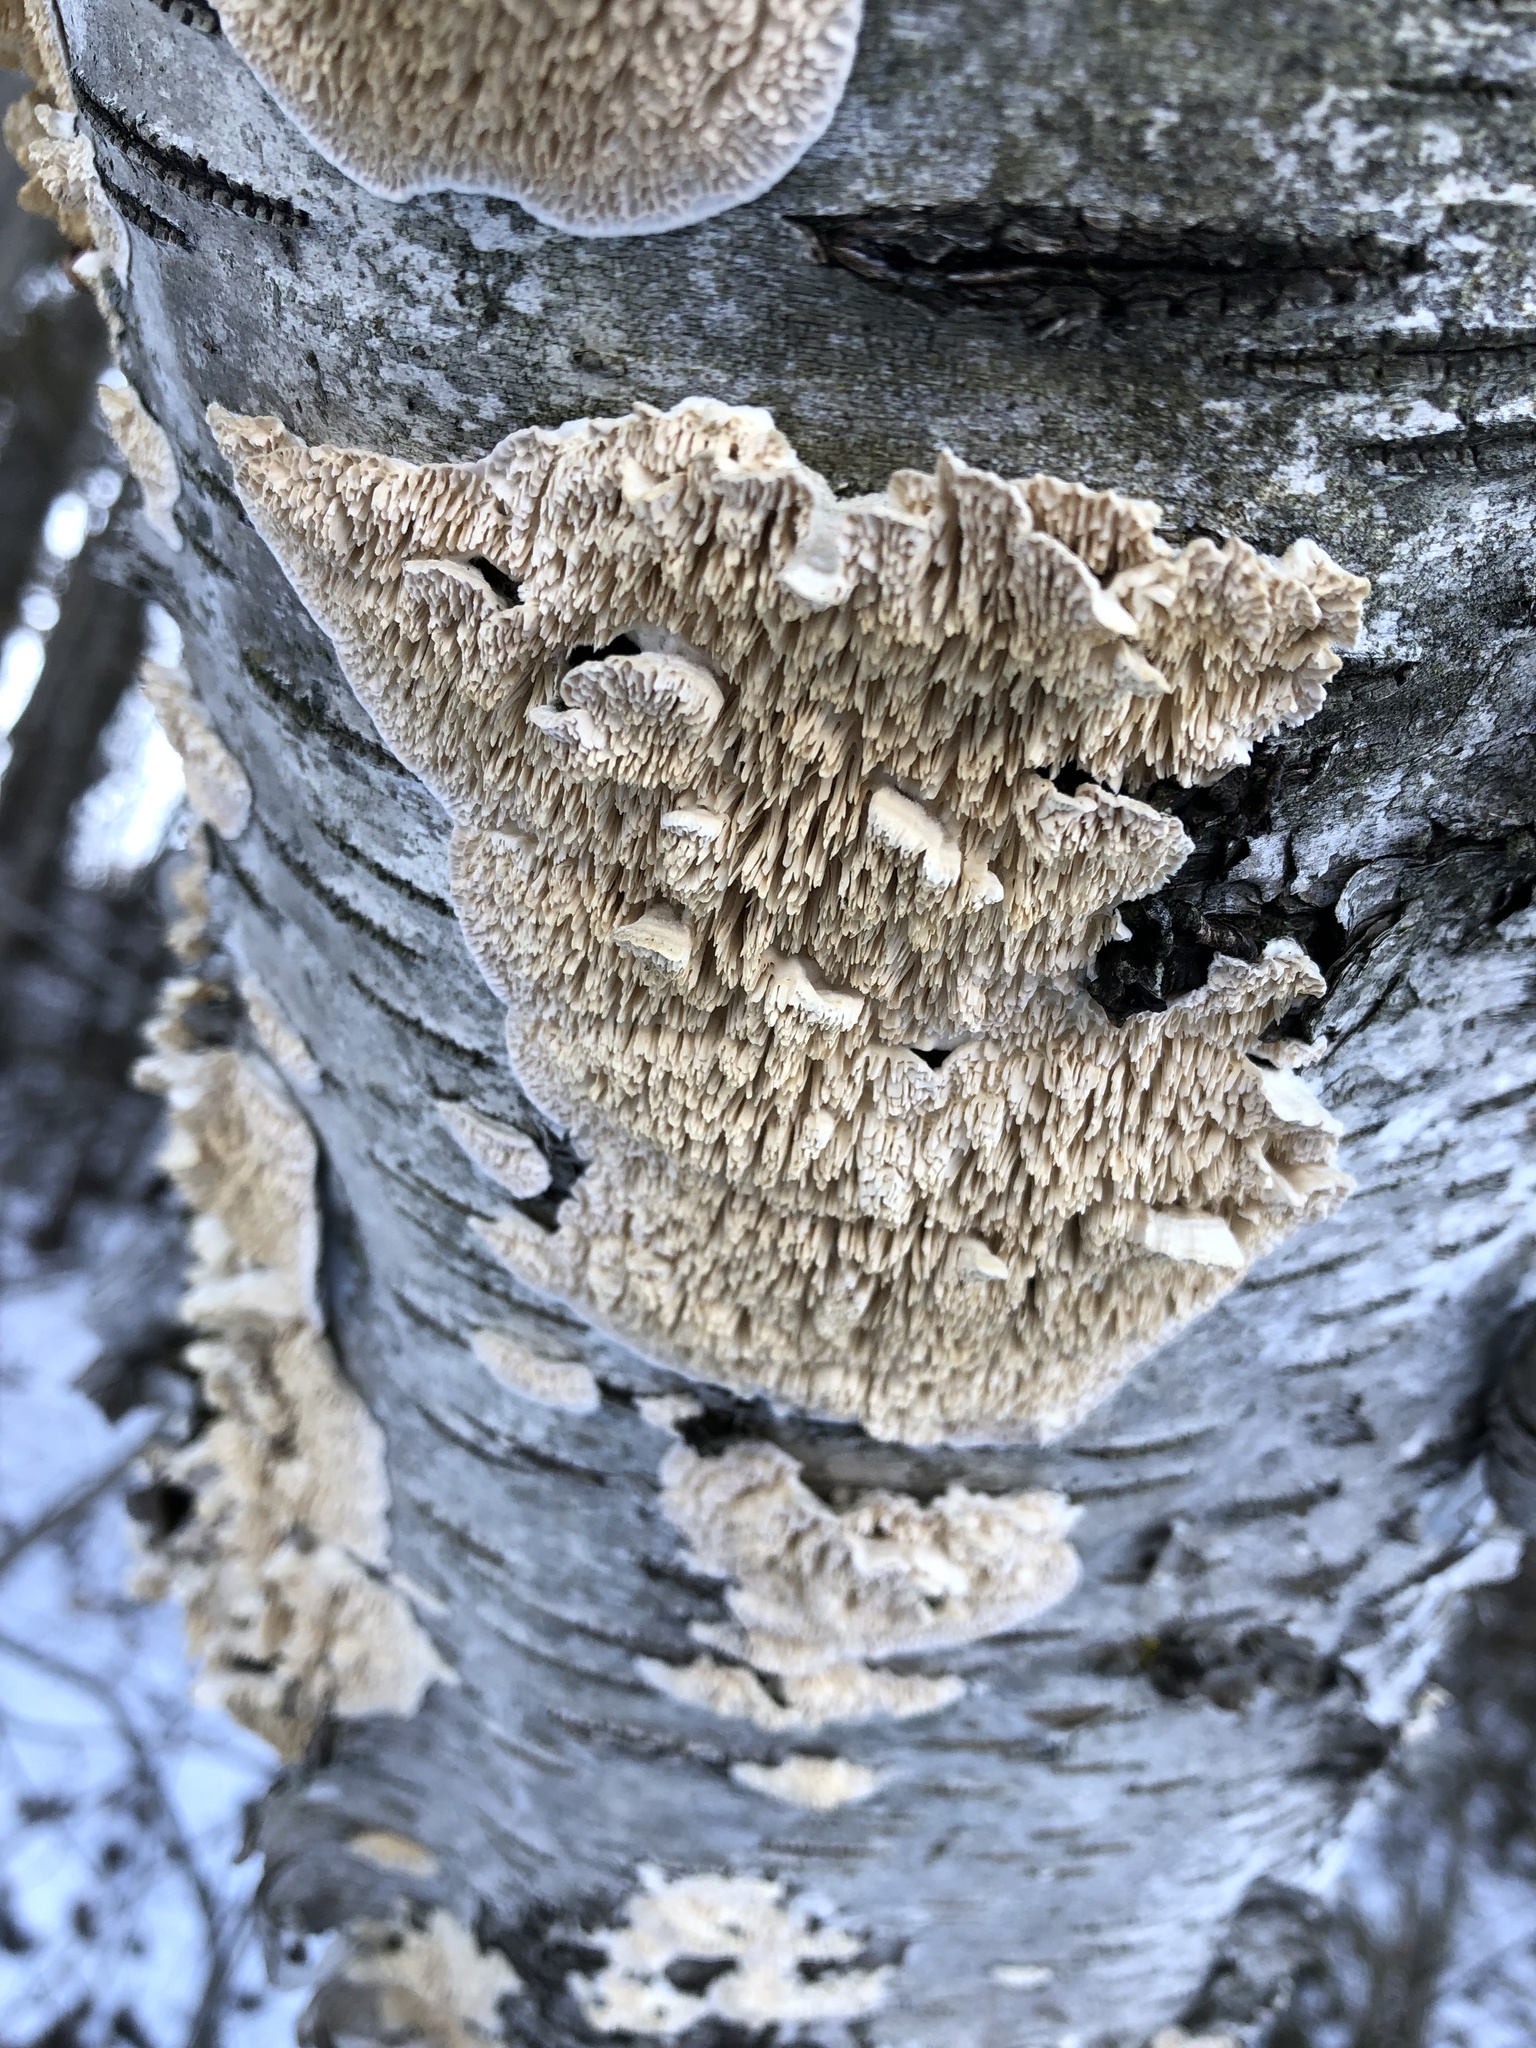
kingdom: Fungi
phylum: Basidiomycota
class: Agaricomycetes
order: Polyporales
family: Irpicaceae
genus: Irpex
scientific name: Irpex lacteus
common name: Milk-white toothed polypore
